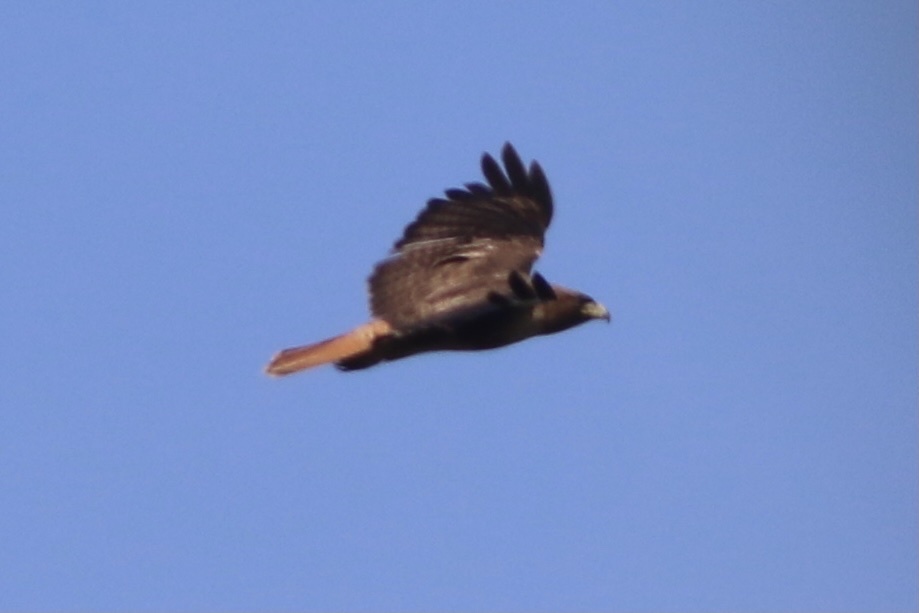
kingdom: Animalia
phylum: Chordata
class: Aves
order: Accipitriformes
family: Accipitridae
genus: Buteo
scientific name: Buteo jamaicensis
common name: Red-tailed hawk
